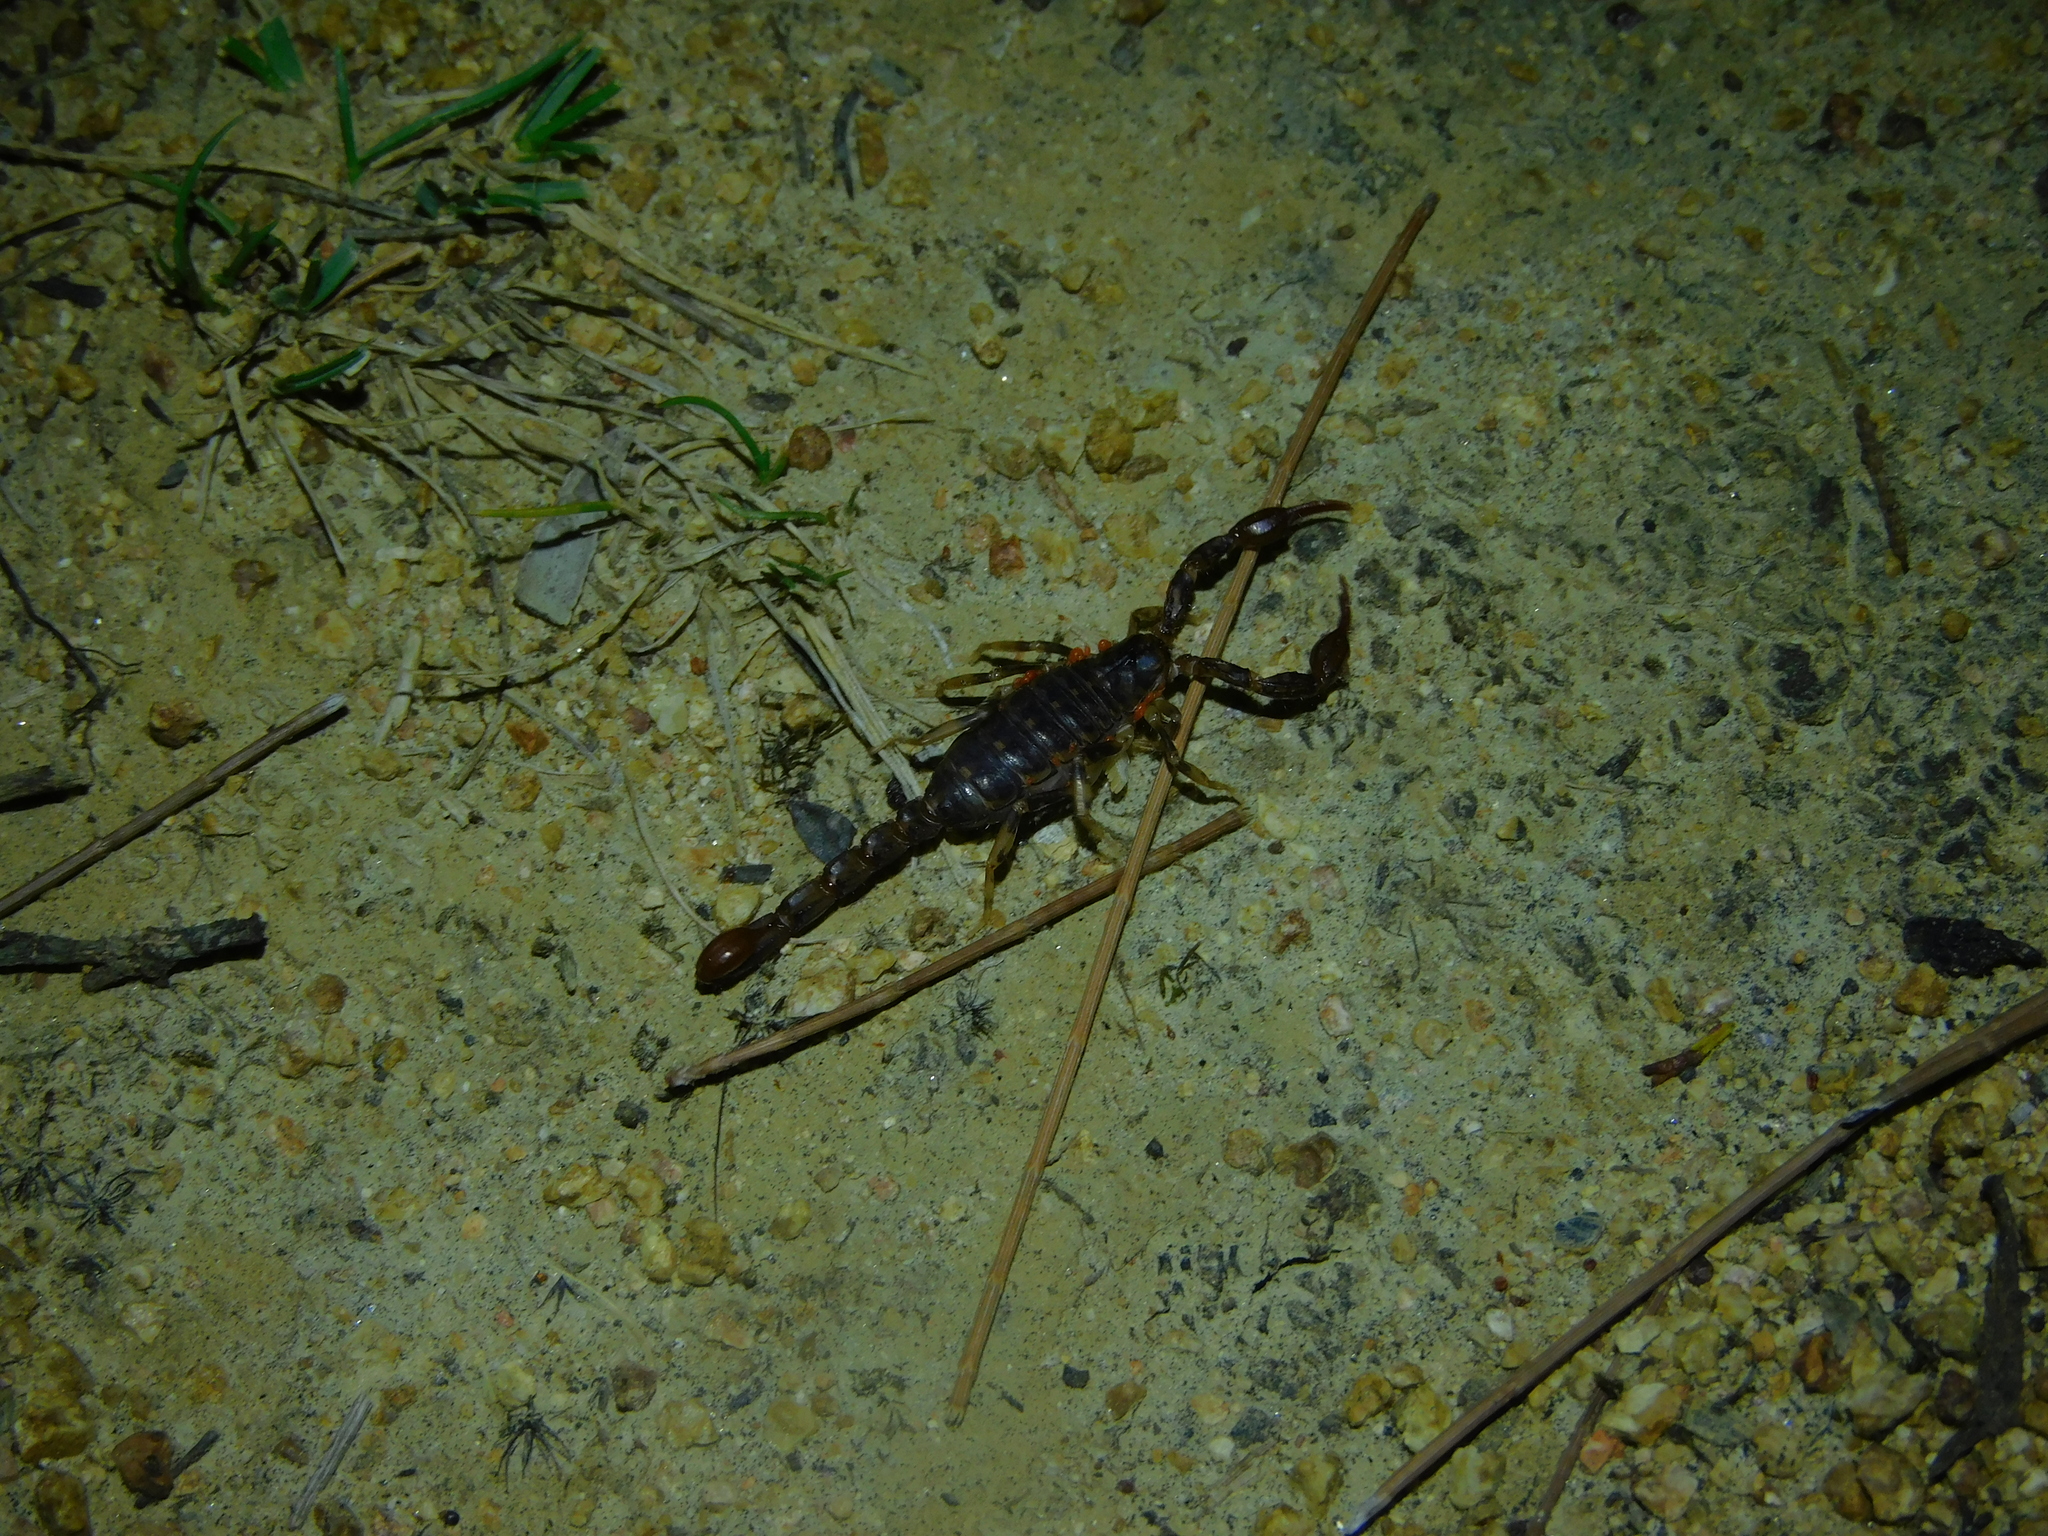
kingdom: Animalia
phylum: Arthropoda
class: Arachnida
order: Scorpiones
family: Bothriuridae
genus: Cercophonius
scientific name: Cercophonius squama
